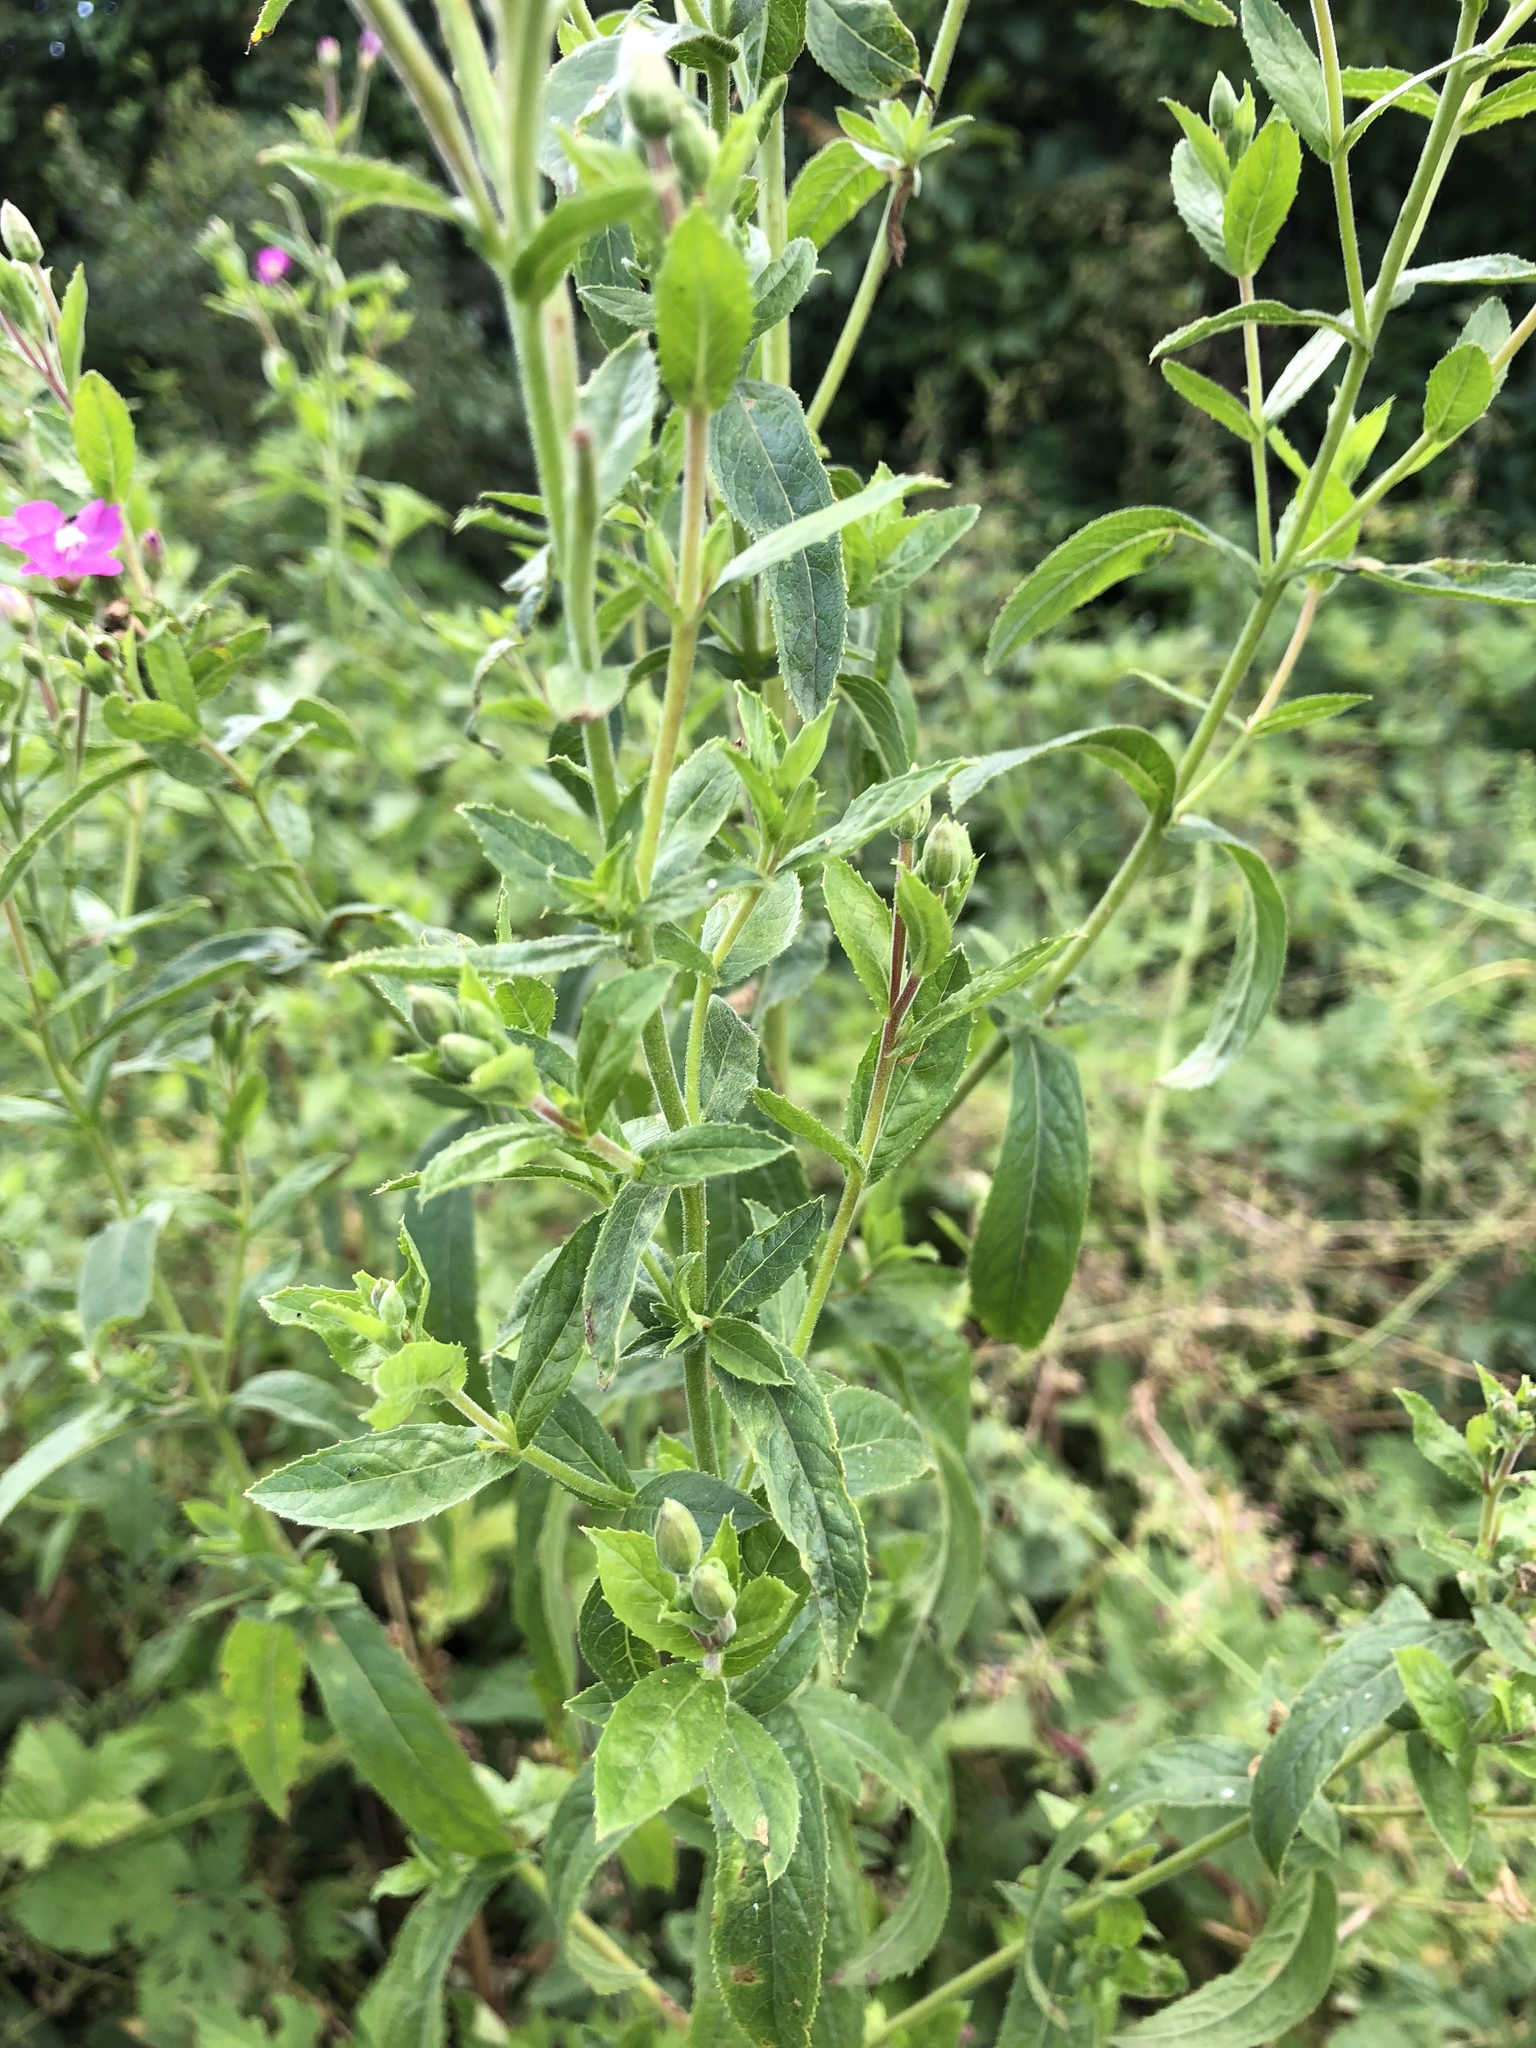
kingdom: Plantae
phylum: Tracheophyta
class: Magnoliopsida
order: Myrtales
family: Onagraceae
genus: Epilobium
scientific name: Epilobium hirsutum
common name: Great willowherb
